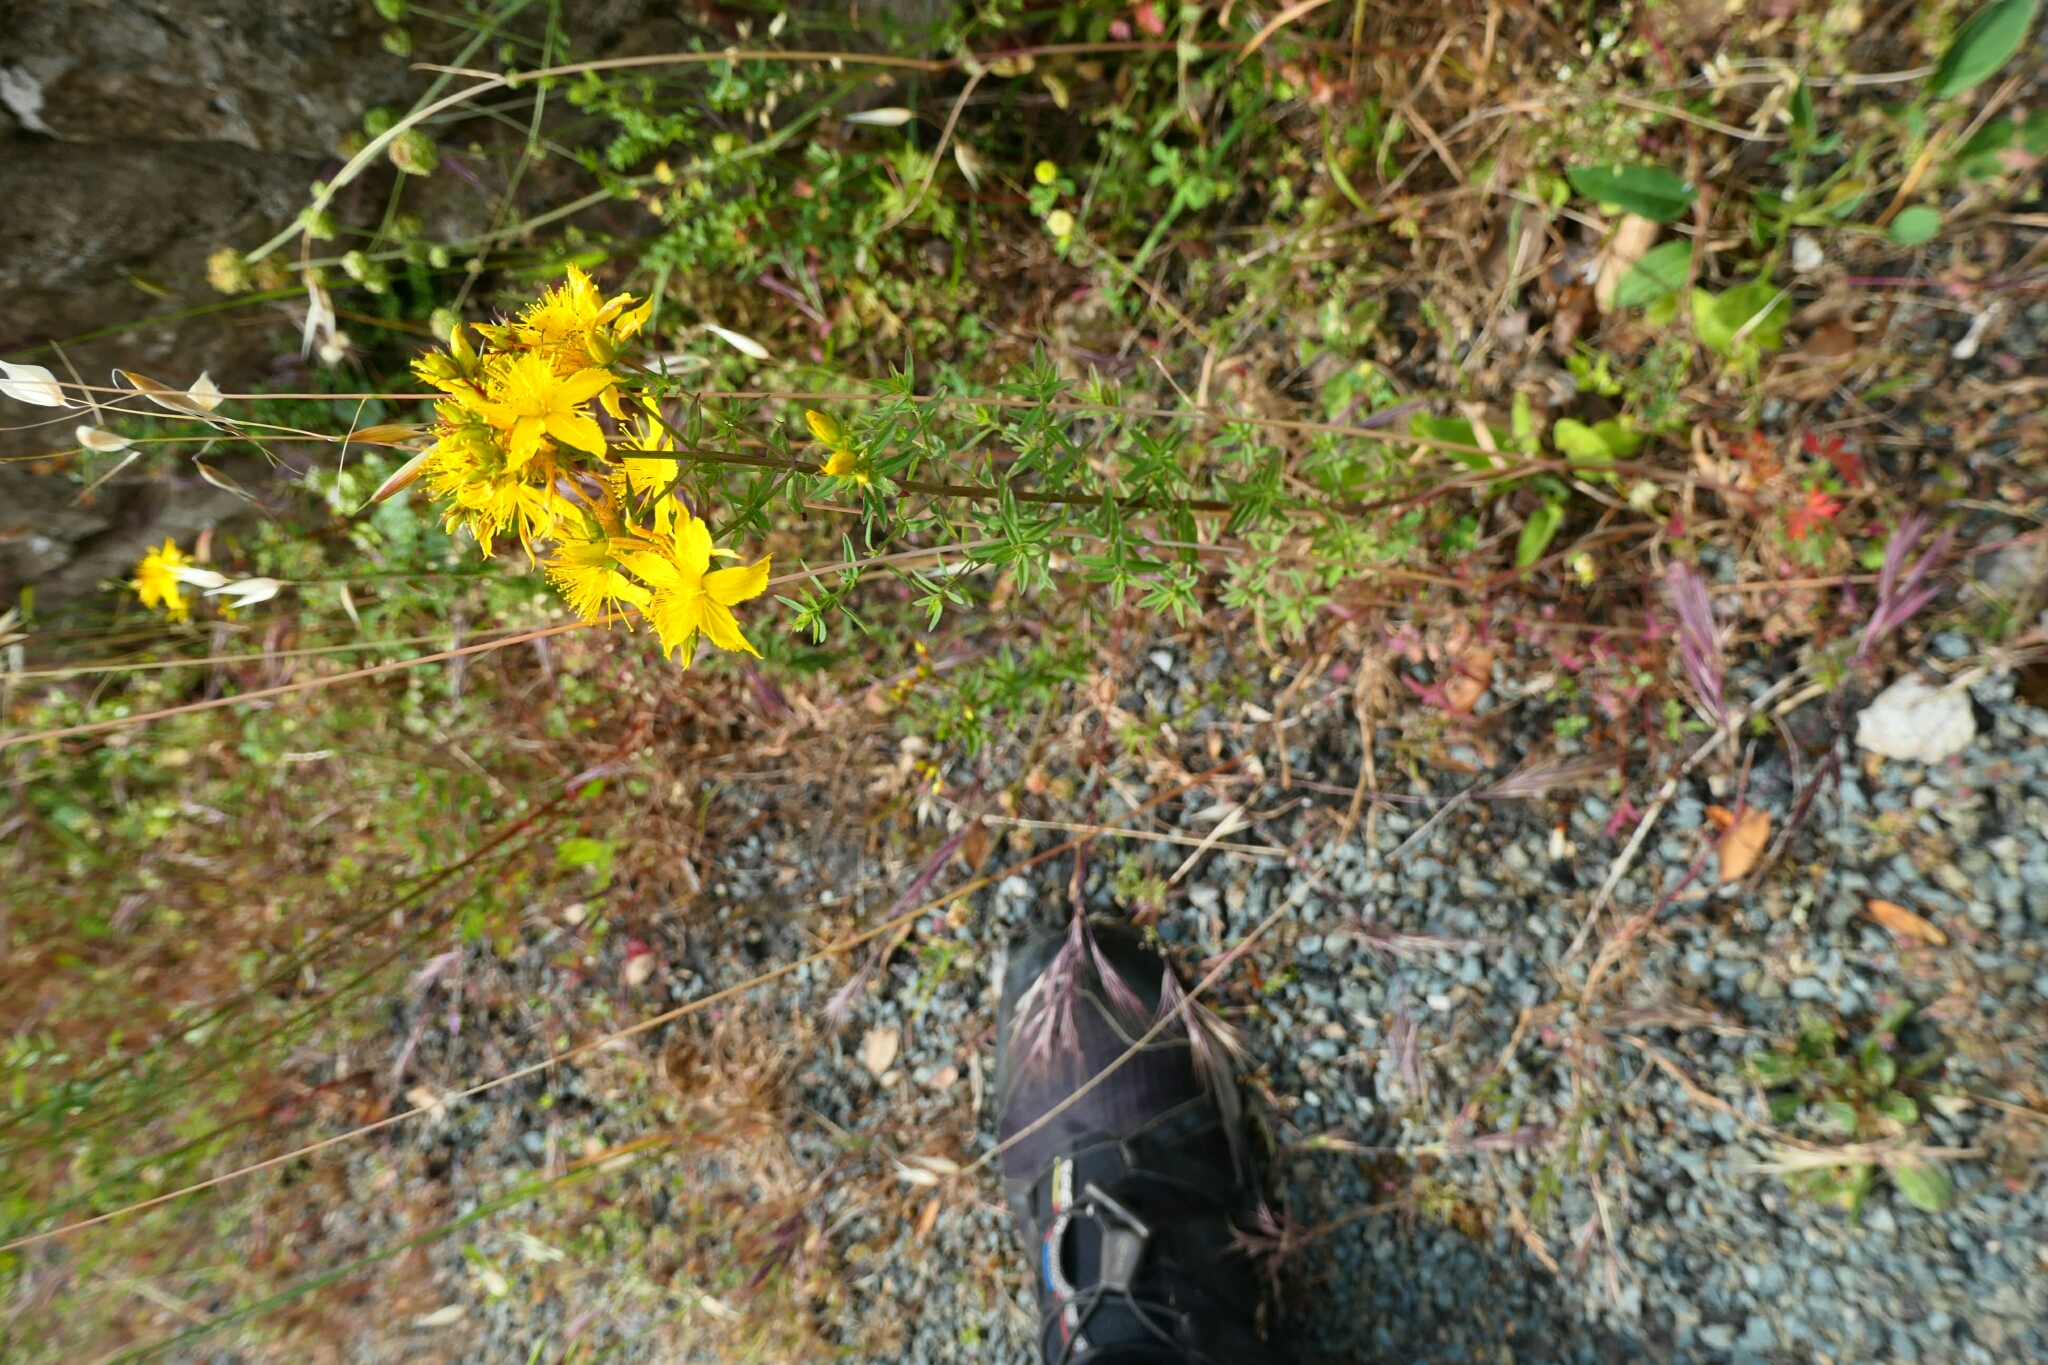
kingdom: Plantae
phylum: Tracheophyta
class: Magnoliopsida
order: Malpighiales
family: Hypericaceae
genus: Hypericum
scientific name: Hypericum perforatum
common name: Common st. johnswort
